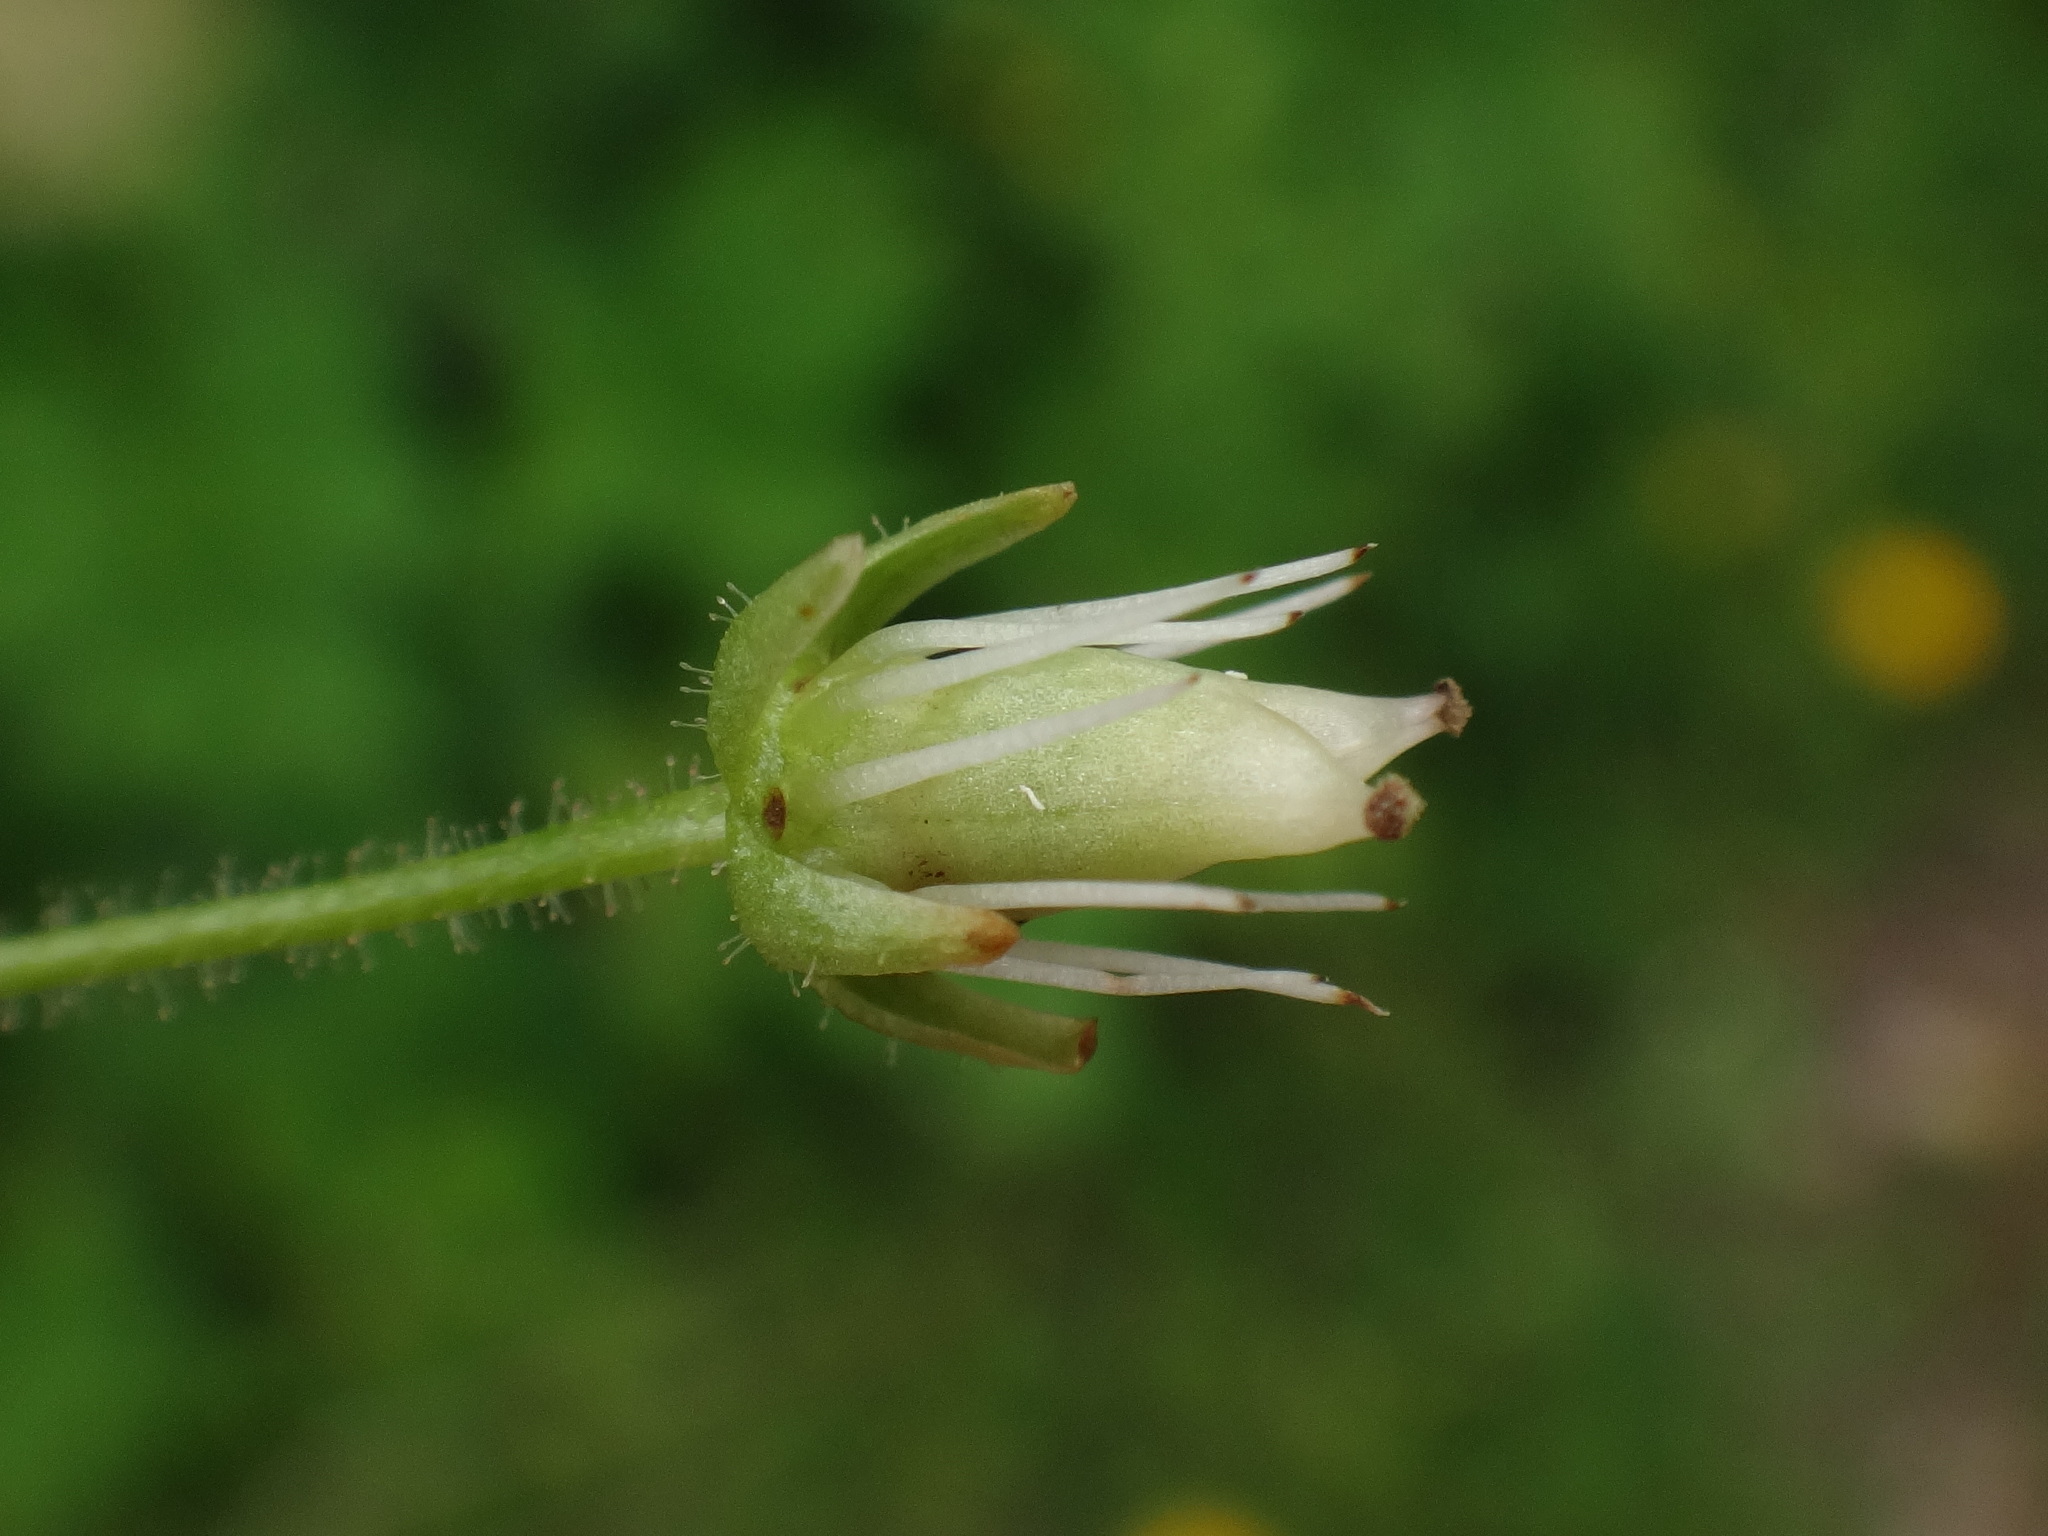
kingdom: Plantae
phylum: Tracheophyta
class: Magnoliopsida
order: Saxifragales
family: Saxifragaceae
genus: Saxifraga
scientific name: Saxifraga rotundifolia
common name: Round-leaved saxifrage
